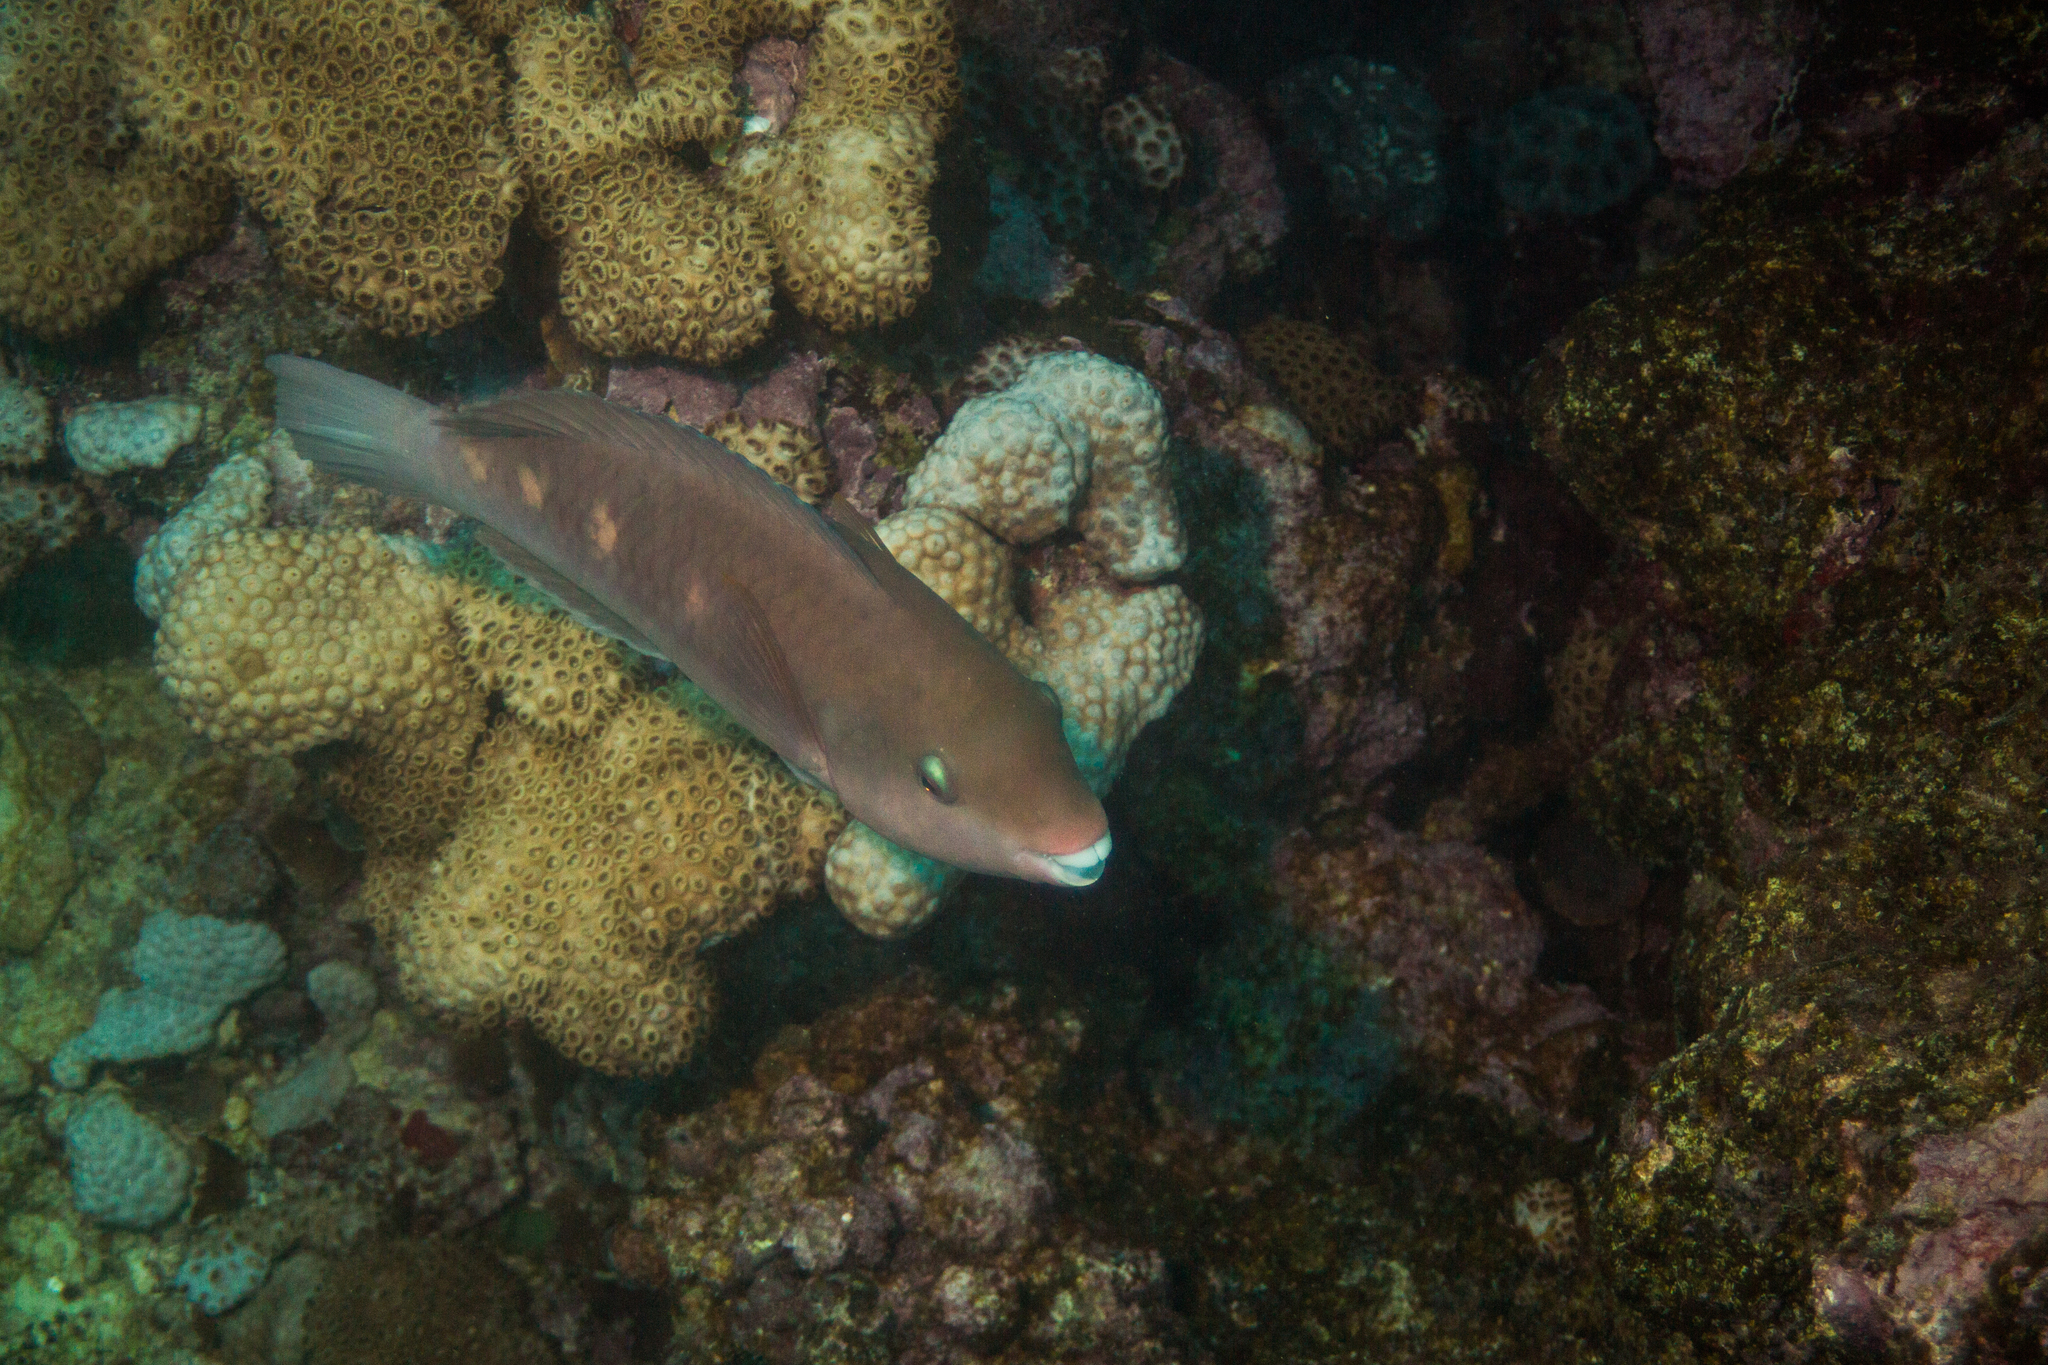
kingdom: Animalia
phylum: Chordata
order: Perciformes
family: Scaridae
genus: Scarus
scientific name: Scarus zelindae
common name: Striped parrotfish
